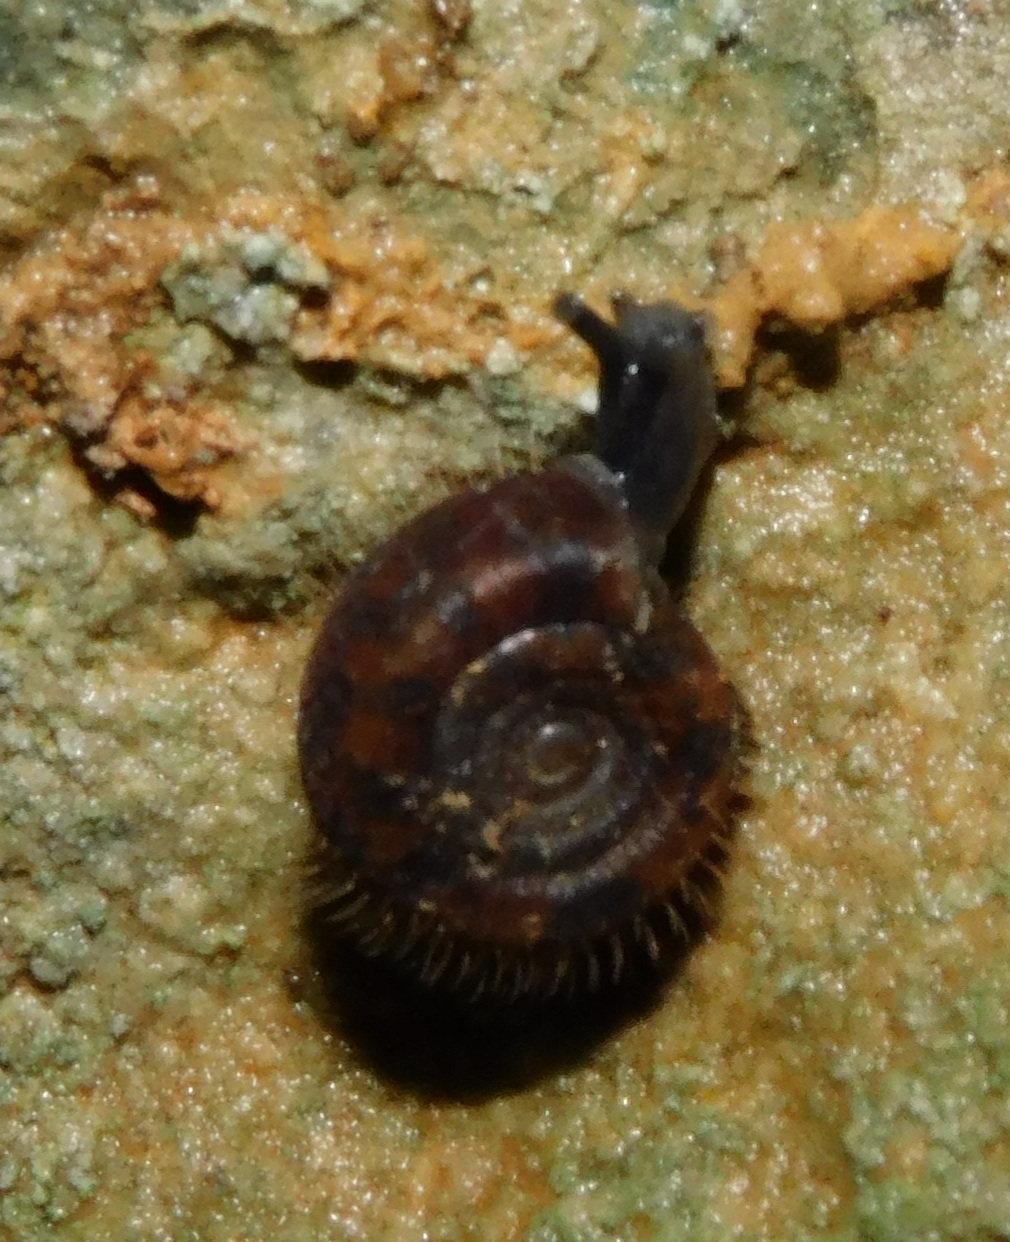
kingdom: Animalia
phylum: Mollusca
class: Gastropoda
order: Stylommatophora
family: Helicodontidae
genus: Helicodonta
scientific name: Helicodonta obvoluta
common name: Cheese snail
